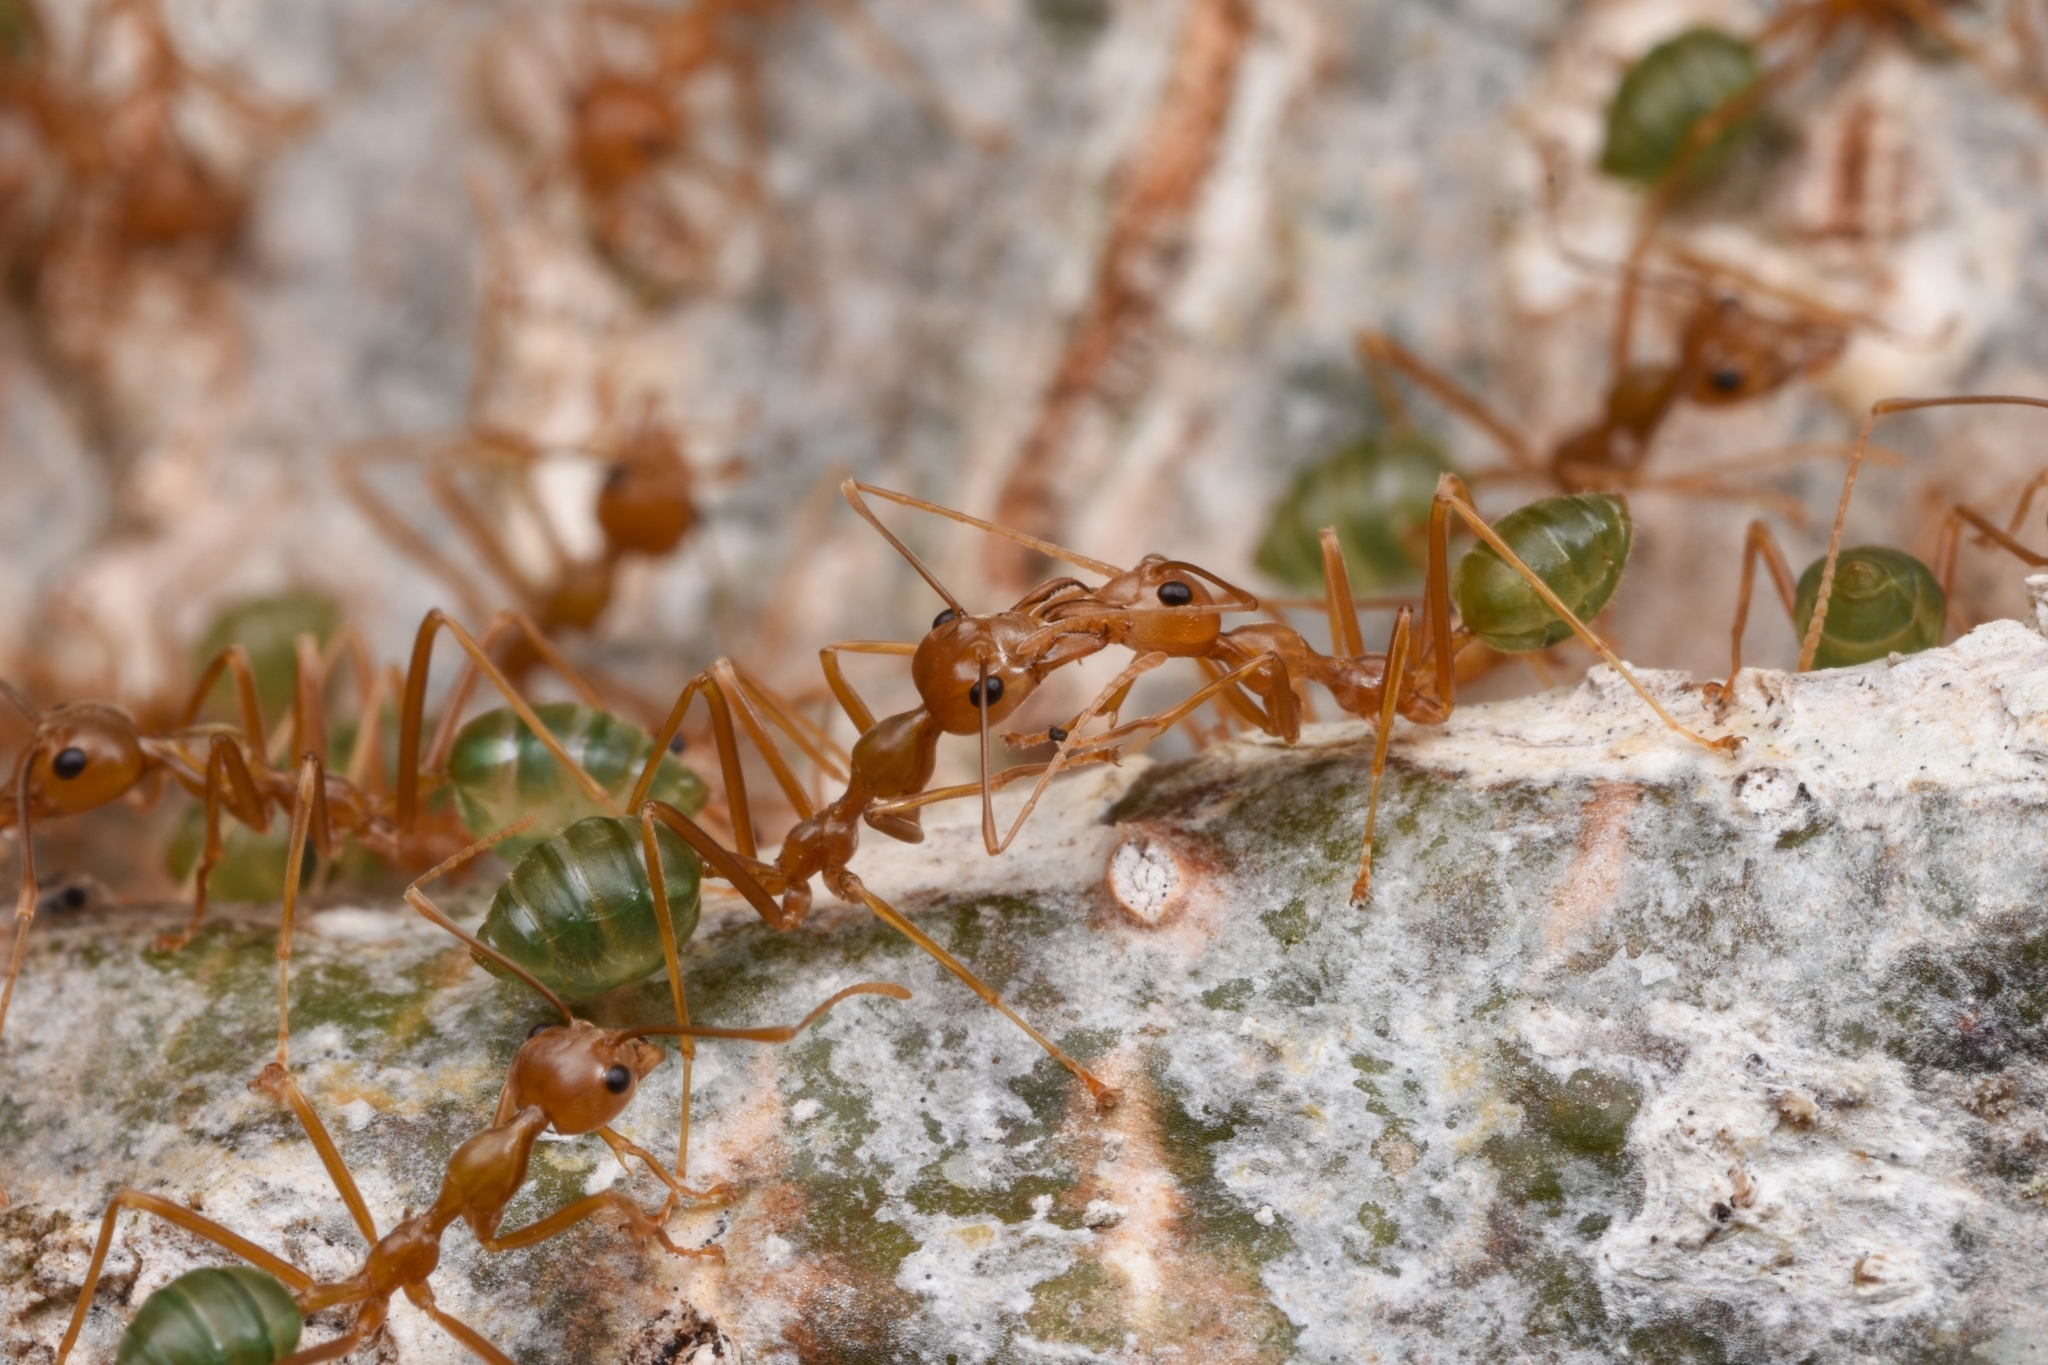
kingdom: Animalia
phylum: Arthropoda
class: Insecta
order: Hymenoptera
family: Formicidae
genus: Oecophylla
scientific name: Oecophylla smaragdina
